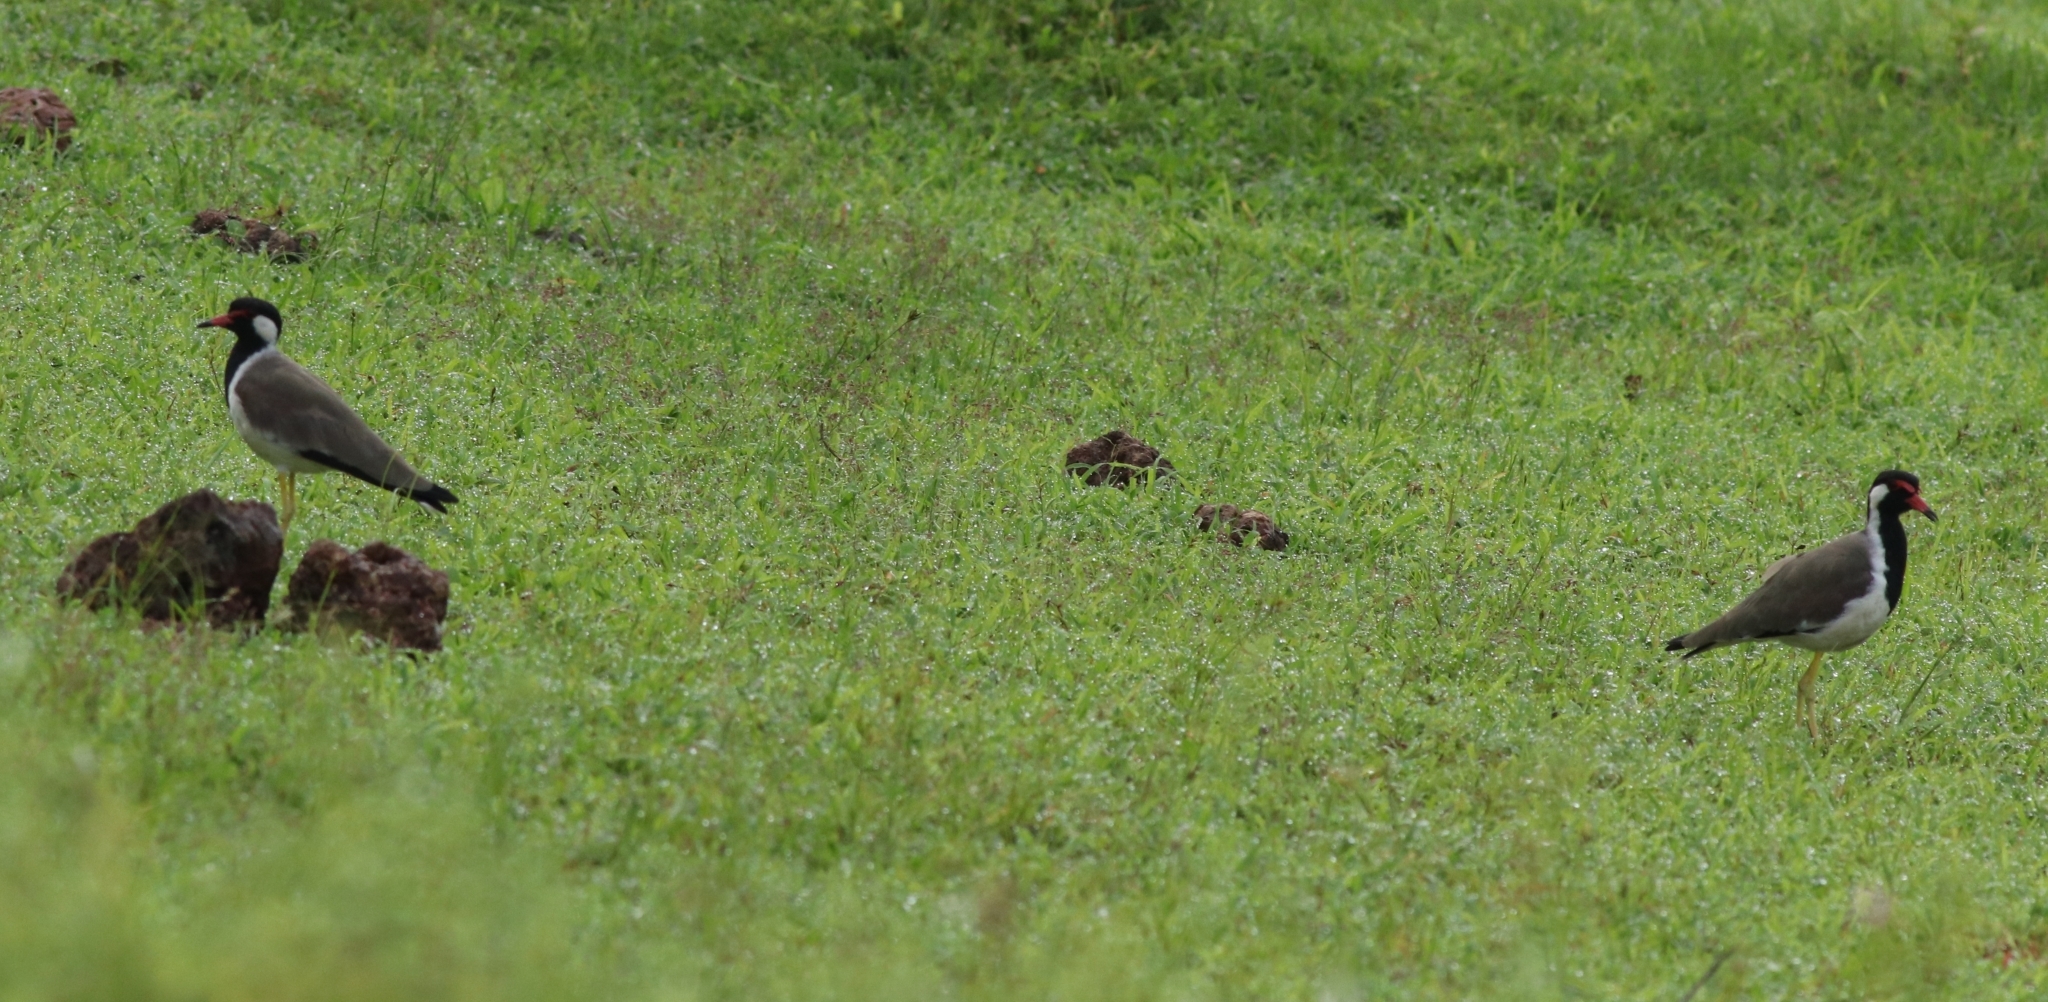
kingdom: Animalia
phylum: Chordata
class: Aves
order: Charadriiformes
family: Charadriidae
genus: Vanellus
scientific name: Vanellus indicus
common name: Red-wattled lapwing
